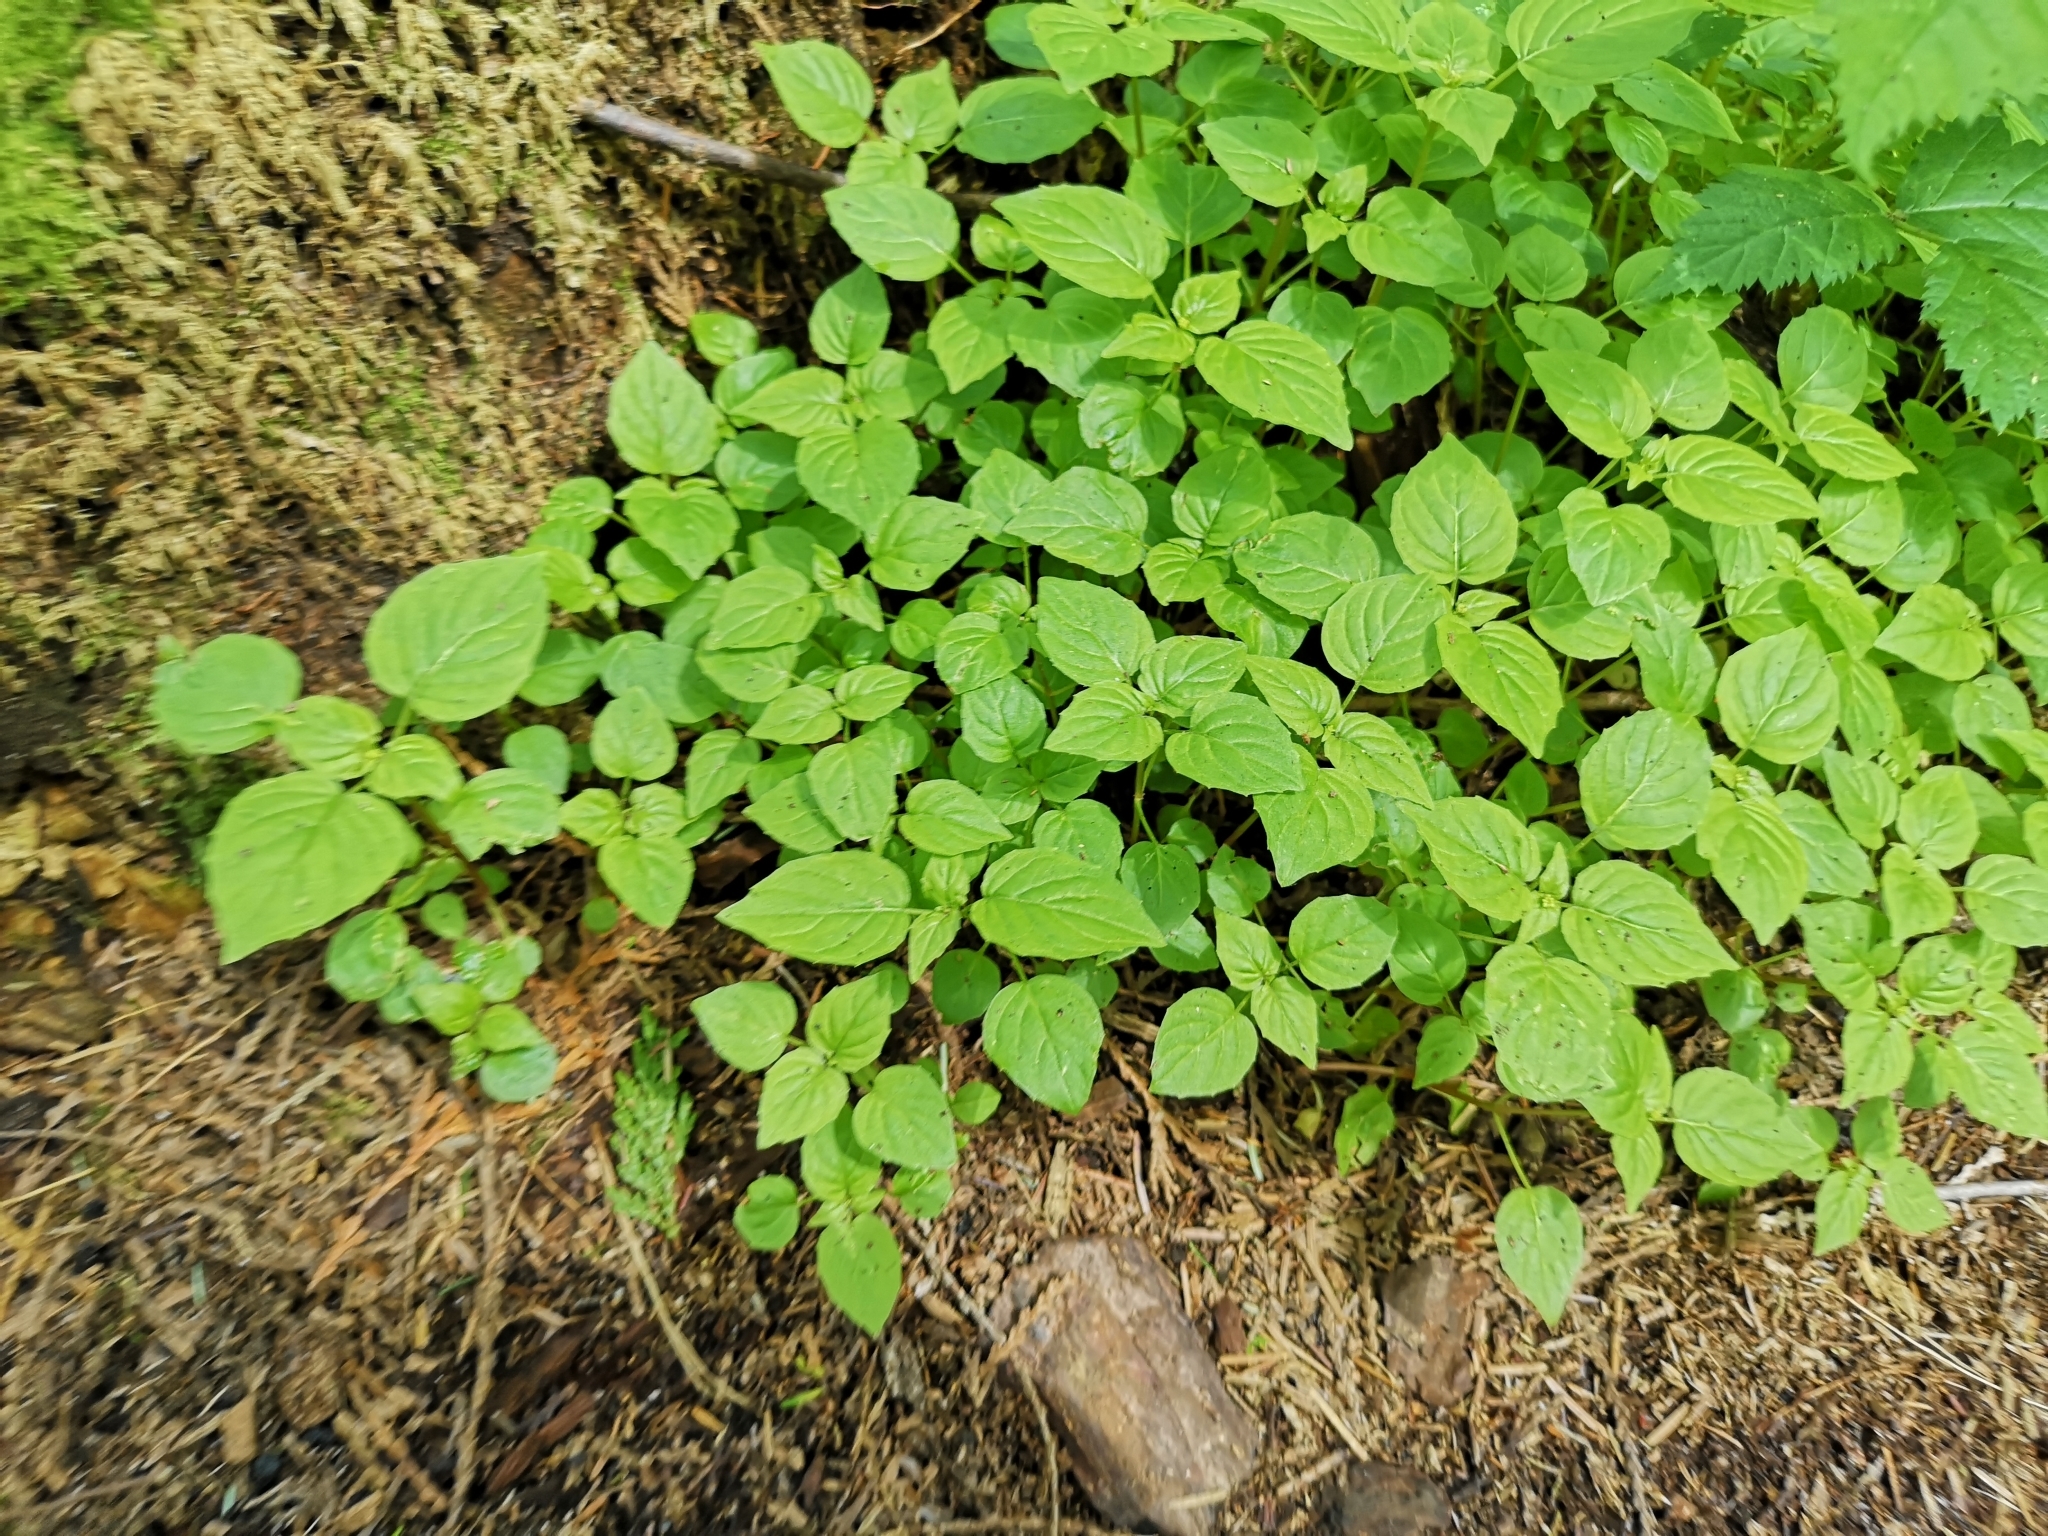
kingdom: Plantae
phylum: Tracheophyta
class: Magnoliopsida
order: Myrtales
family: Onagraceae
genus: Circaea
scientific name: Circaea alpina
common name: Alpine enchanter's-nightshade
